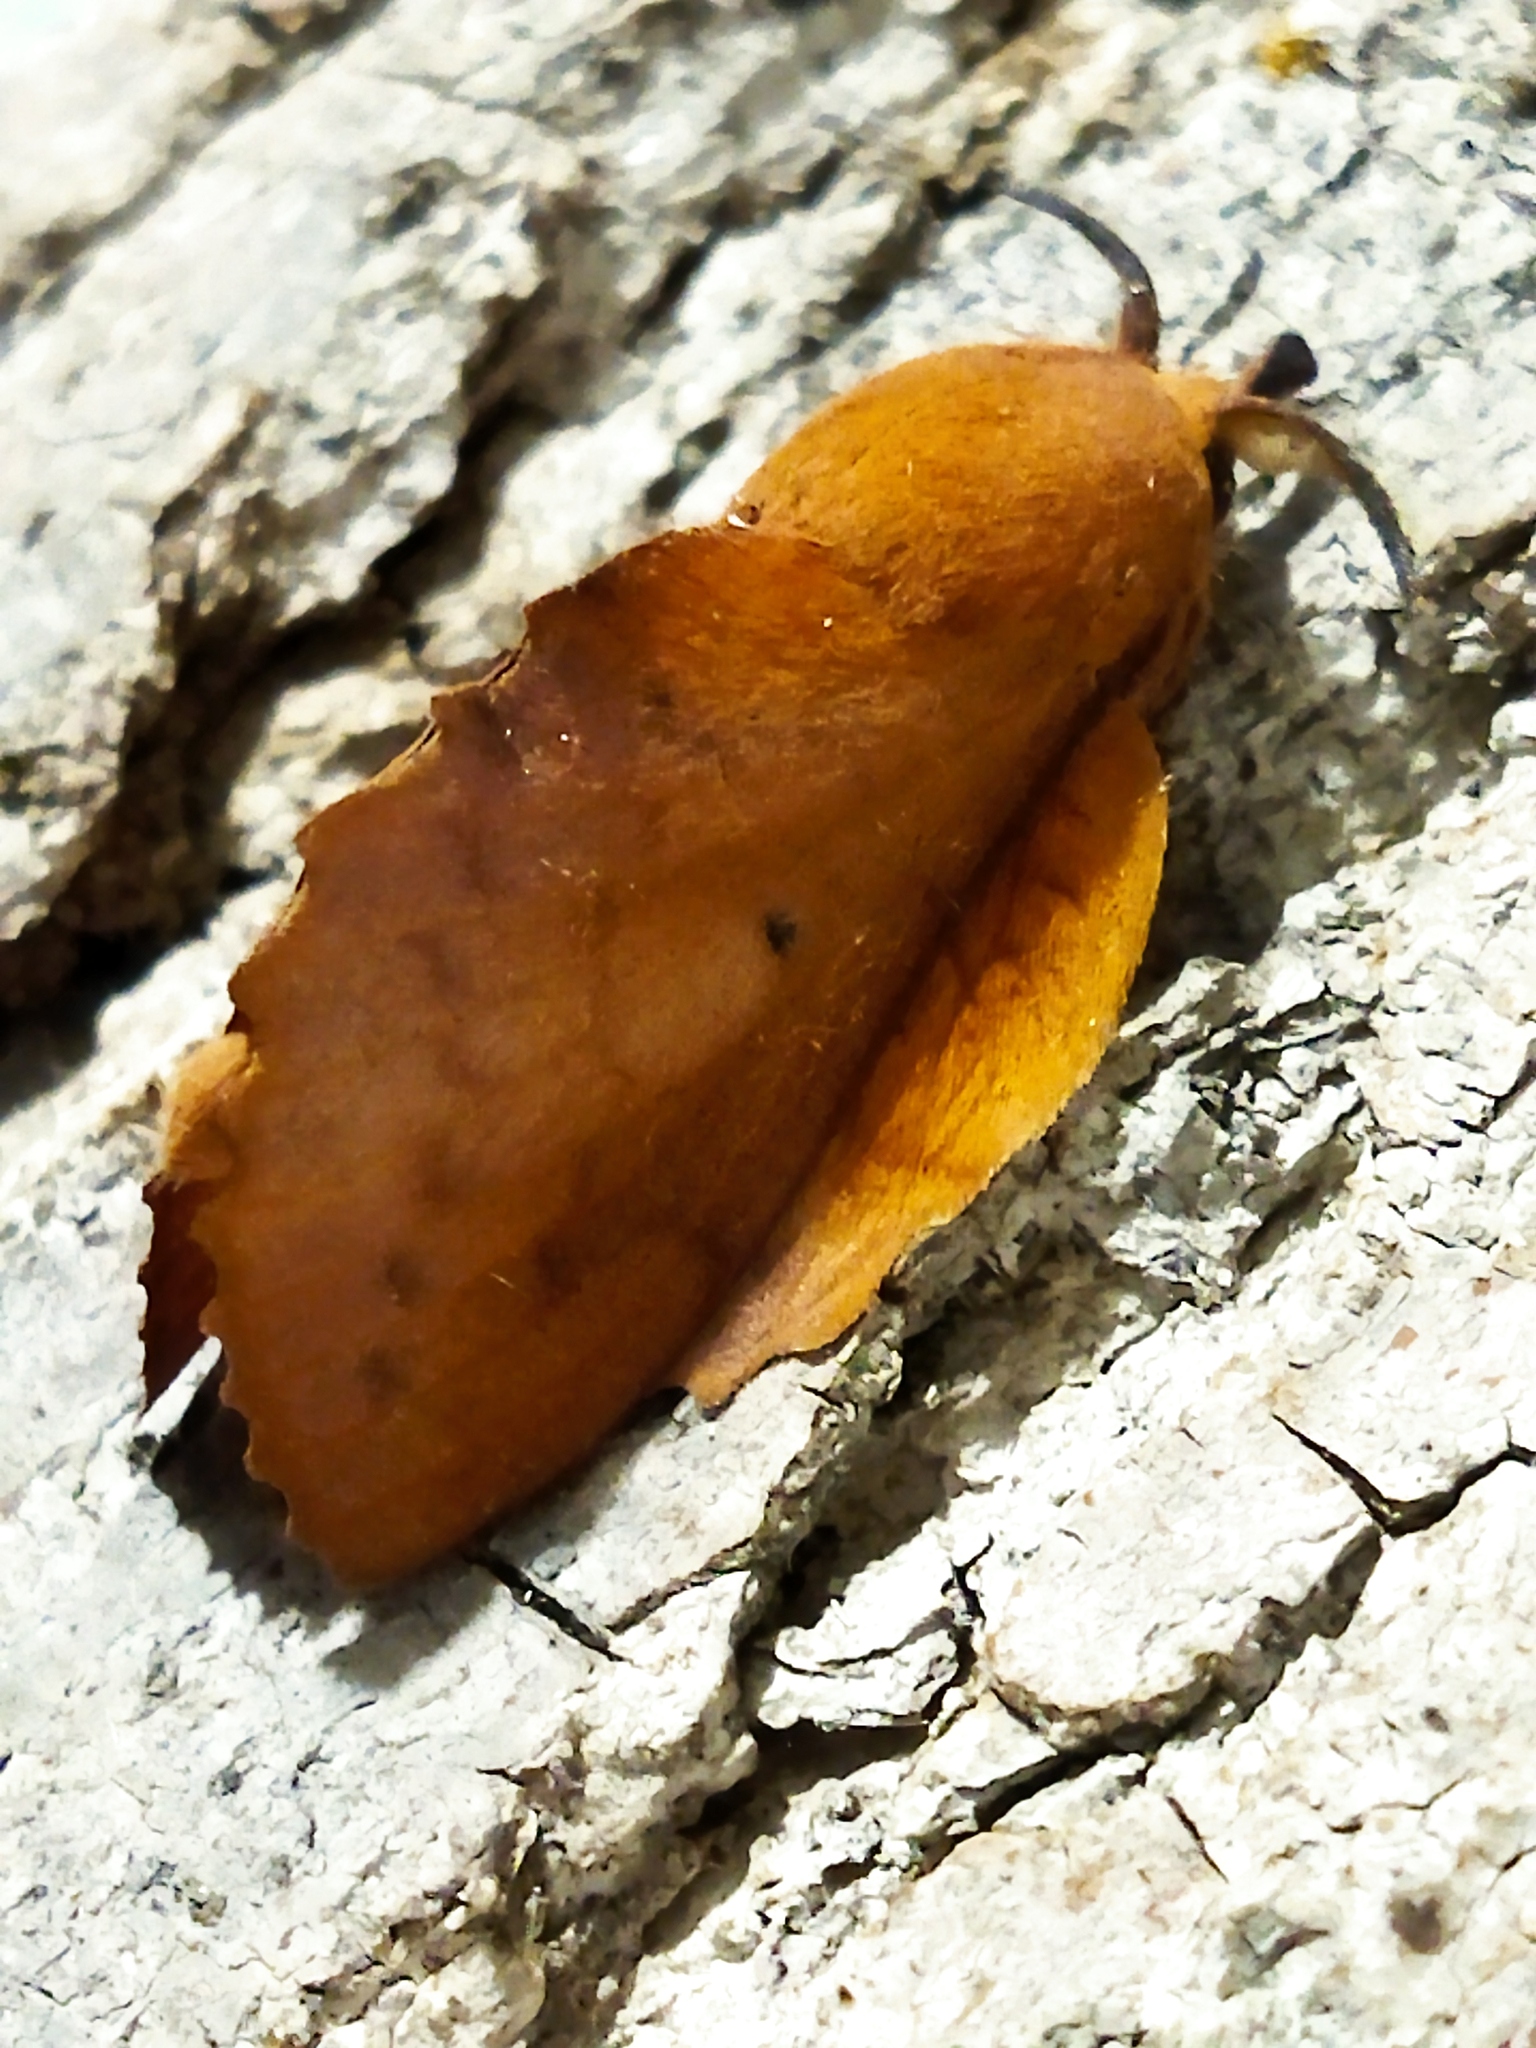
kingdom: Animalia
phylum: Arthropoda
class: Insecta
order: Lepidoptera
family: Lasiocampidae
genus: Gastropacha
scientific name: Gastropacha quercifolia
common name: Lappet
